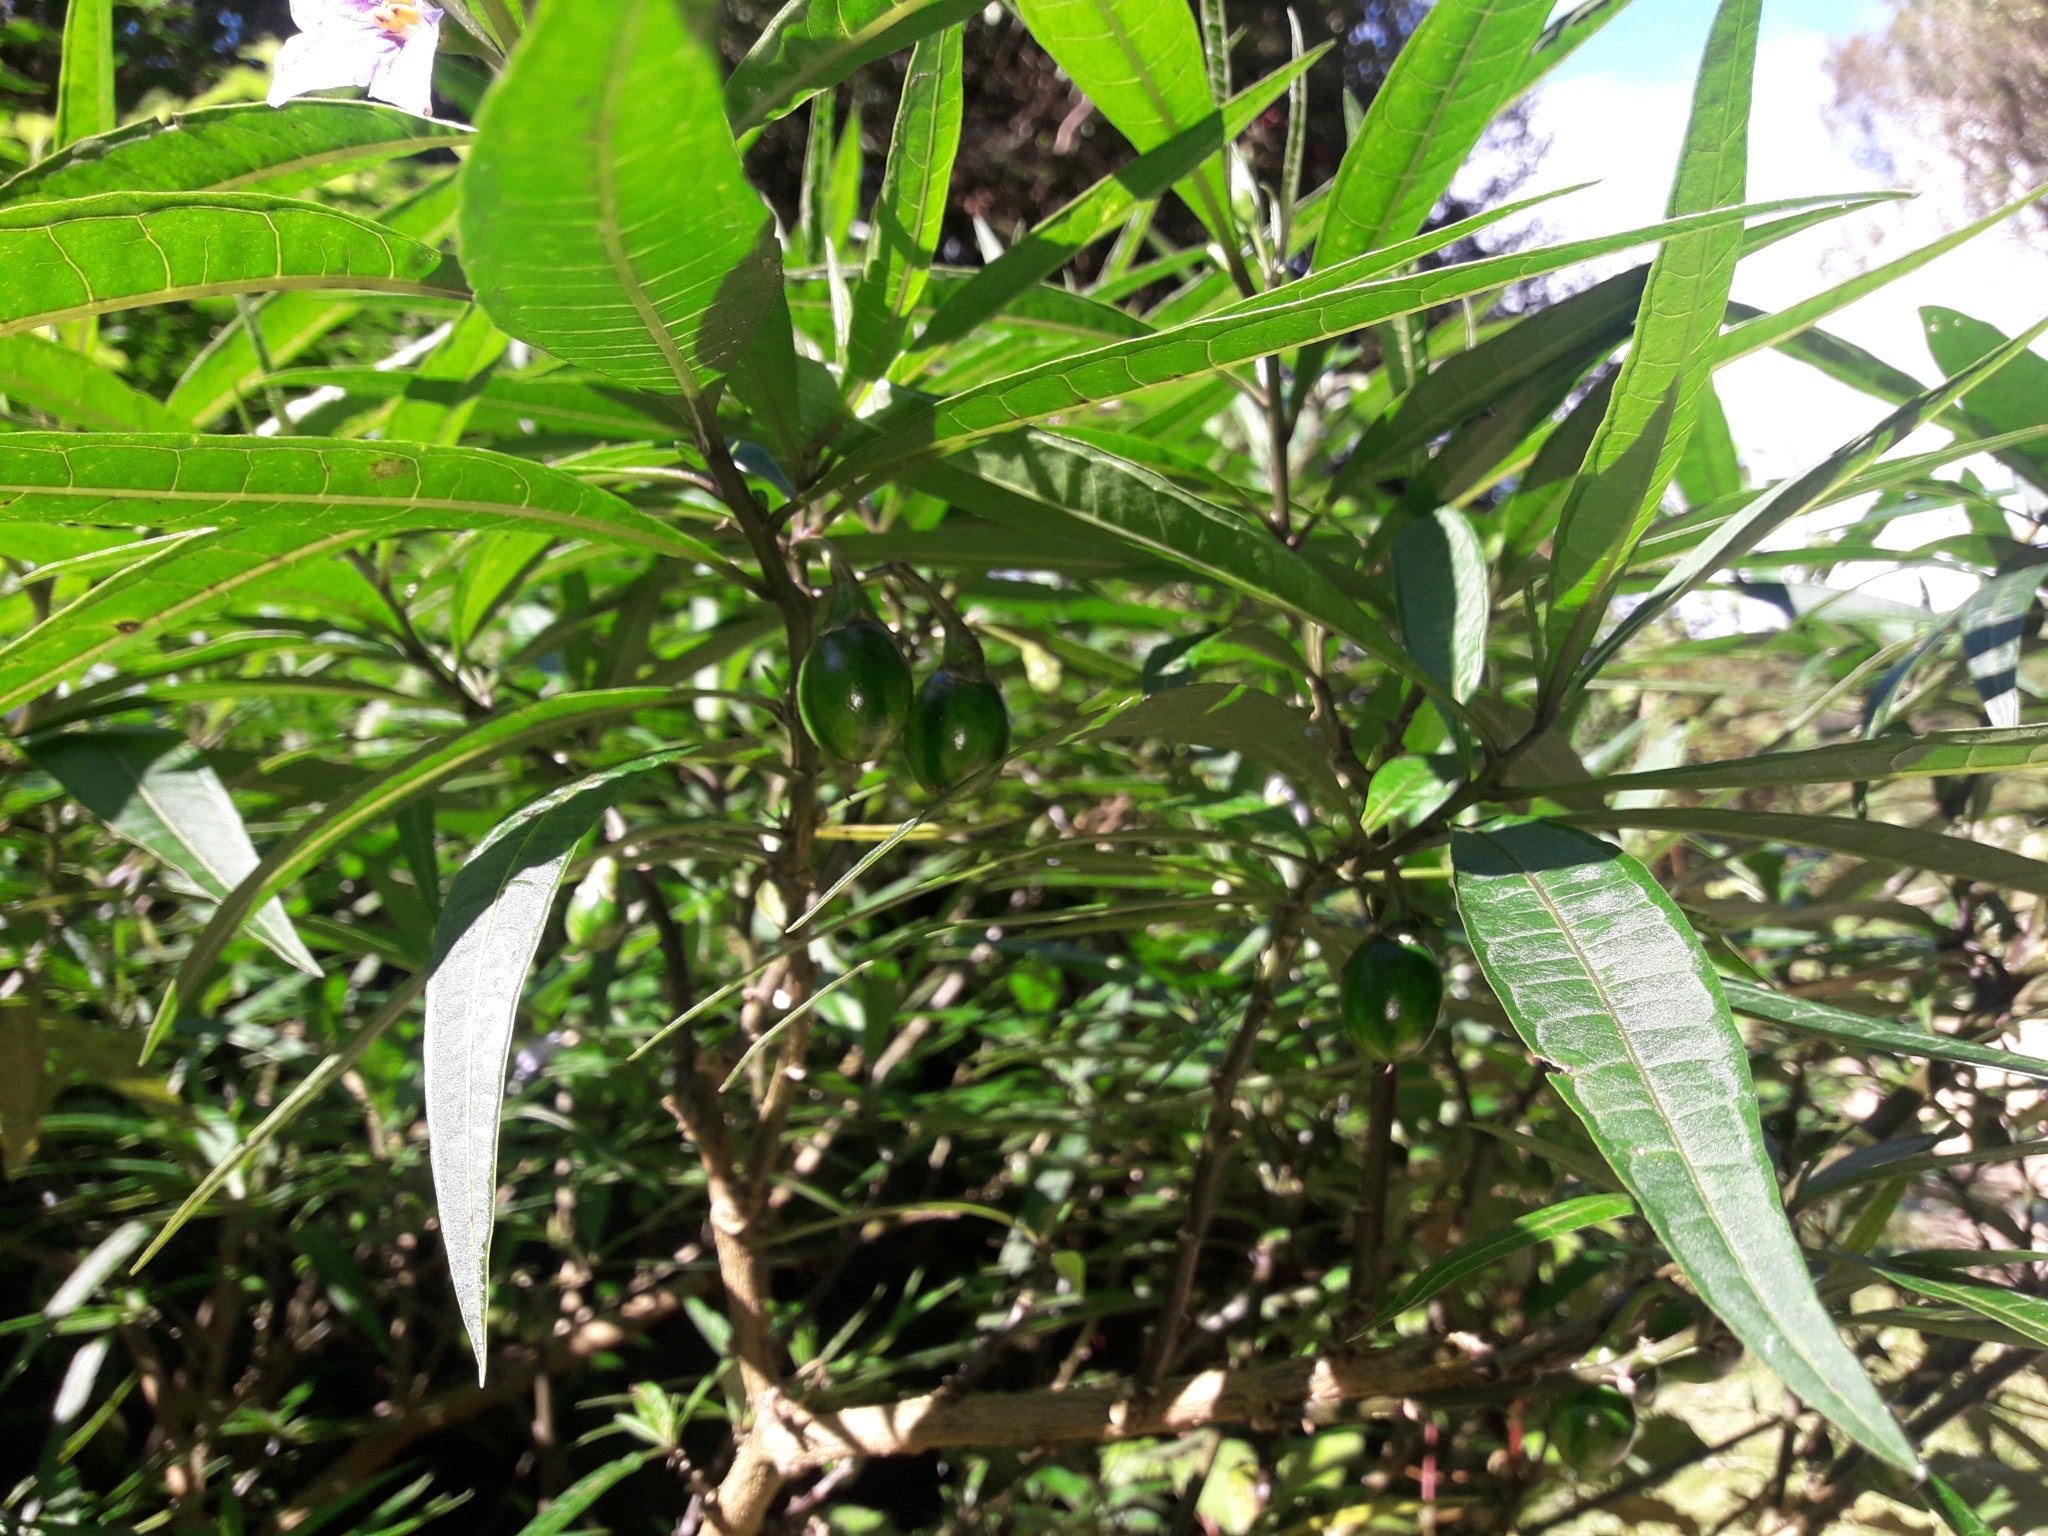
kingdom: Plantae
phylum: Tracheophyta
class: Magnoliopsida
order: Solanales
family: Solanaceae
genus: Solanum
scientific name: Solanum aviculare
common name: New zealand nightshade
